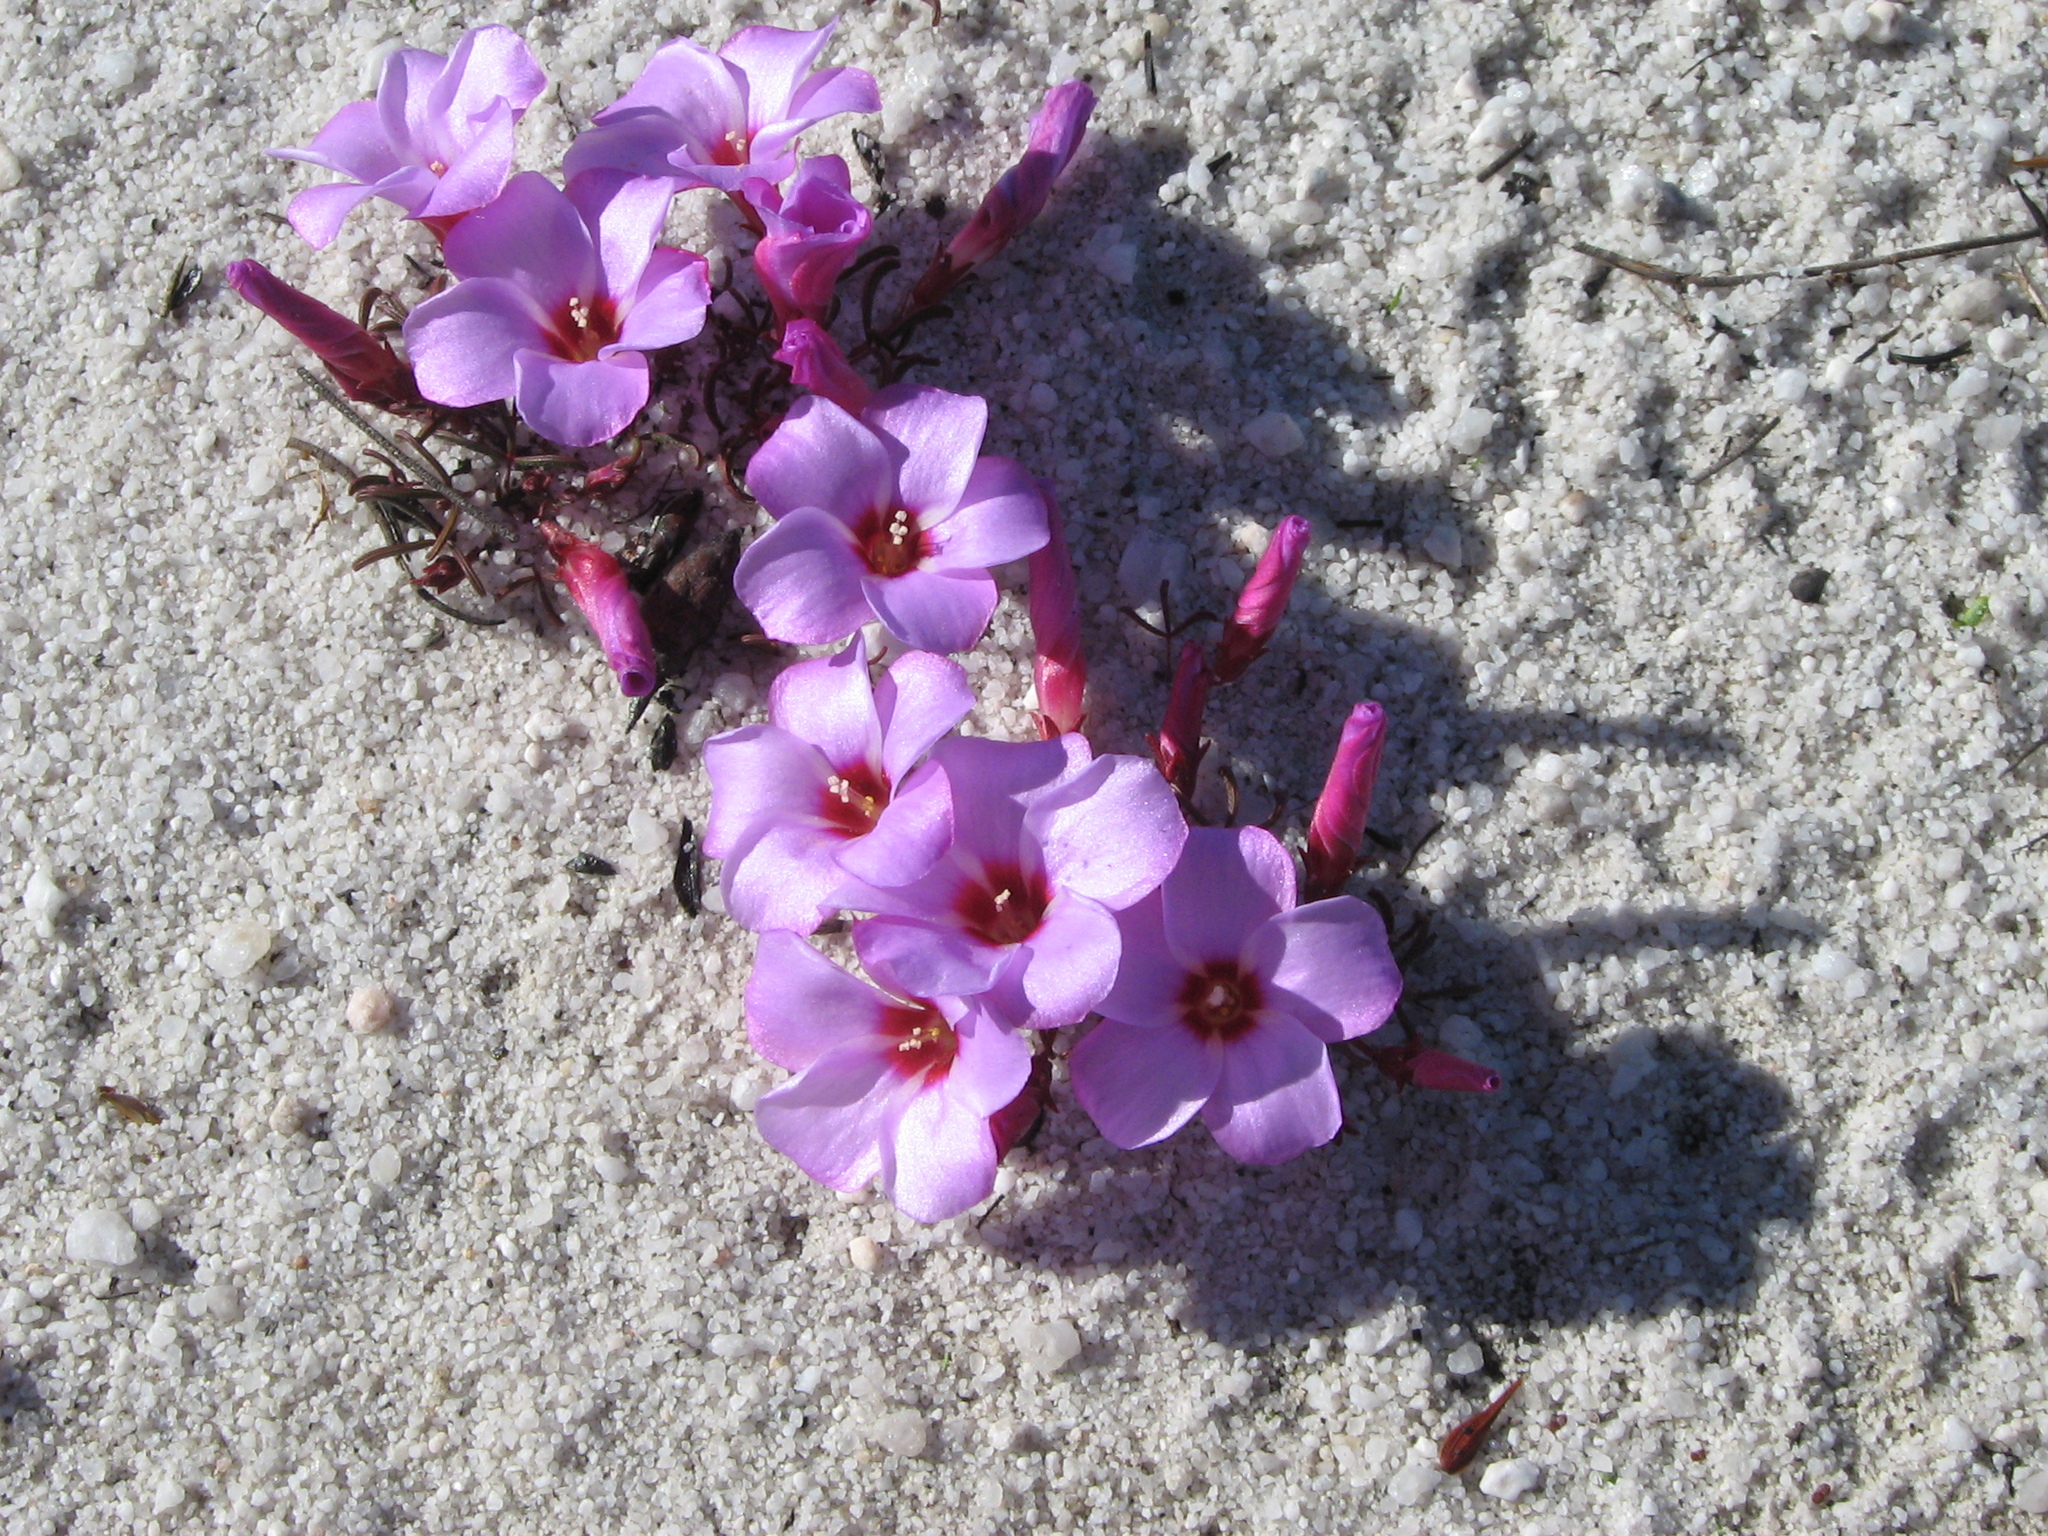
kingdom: Plantae
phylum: Tracheophyta
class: Magnoliopsida
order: Oxalidales
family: Oxalidaceae
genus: Oxalis
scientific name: Oxalis stokoei
